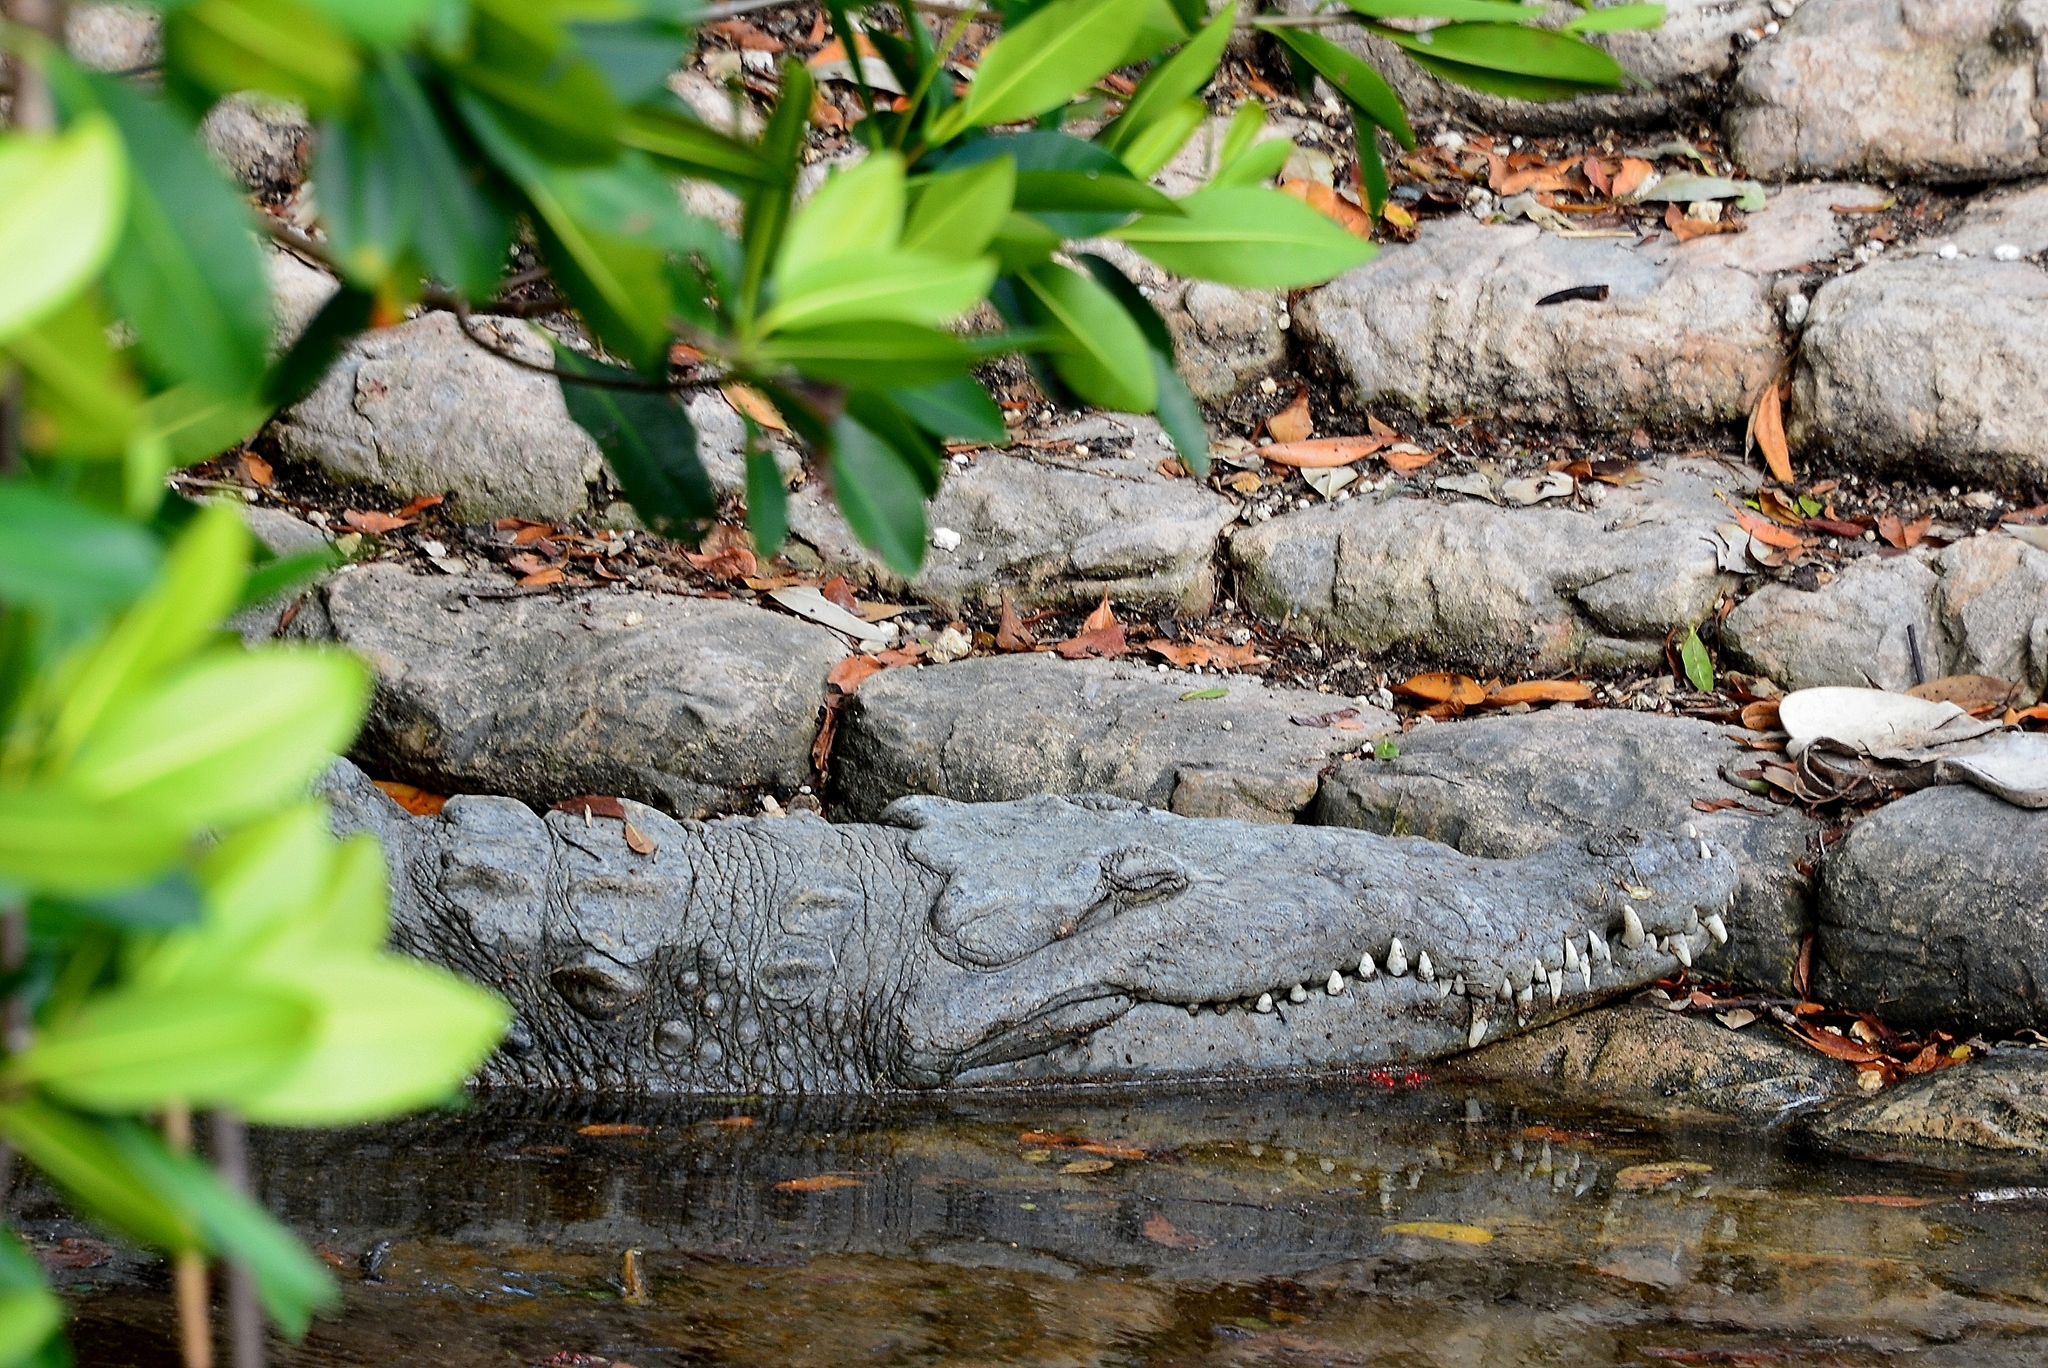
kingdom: Animalia
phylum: Chordata
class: Crocodylia
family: Crocodylidae
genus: Crocodylus
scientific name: Crocodylus acutus
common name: American crocodile
